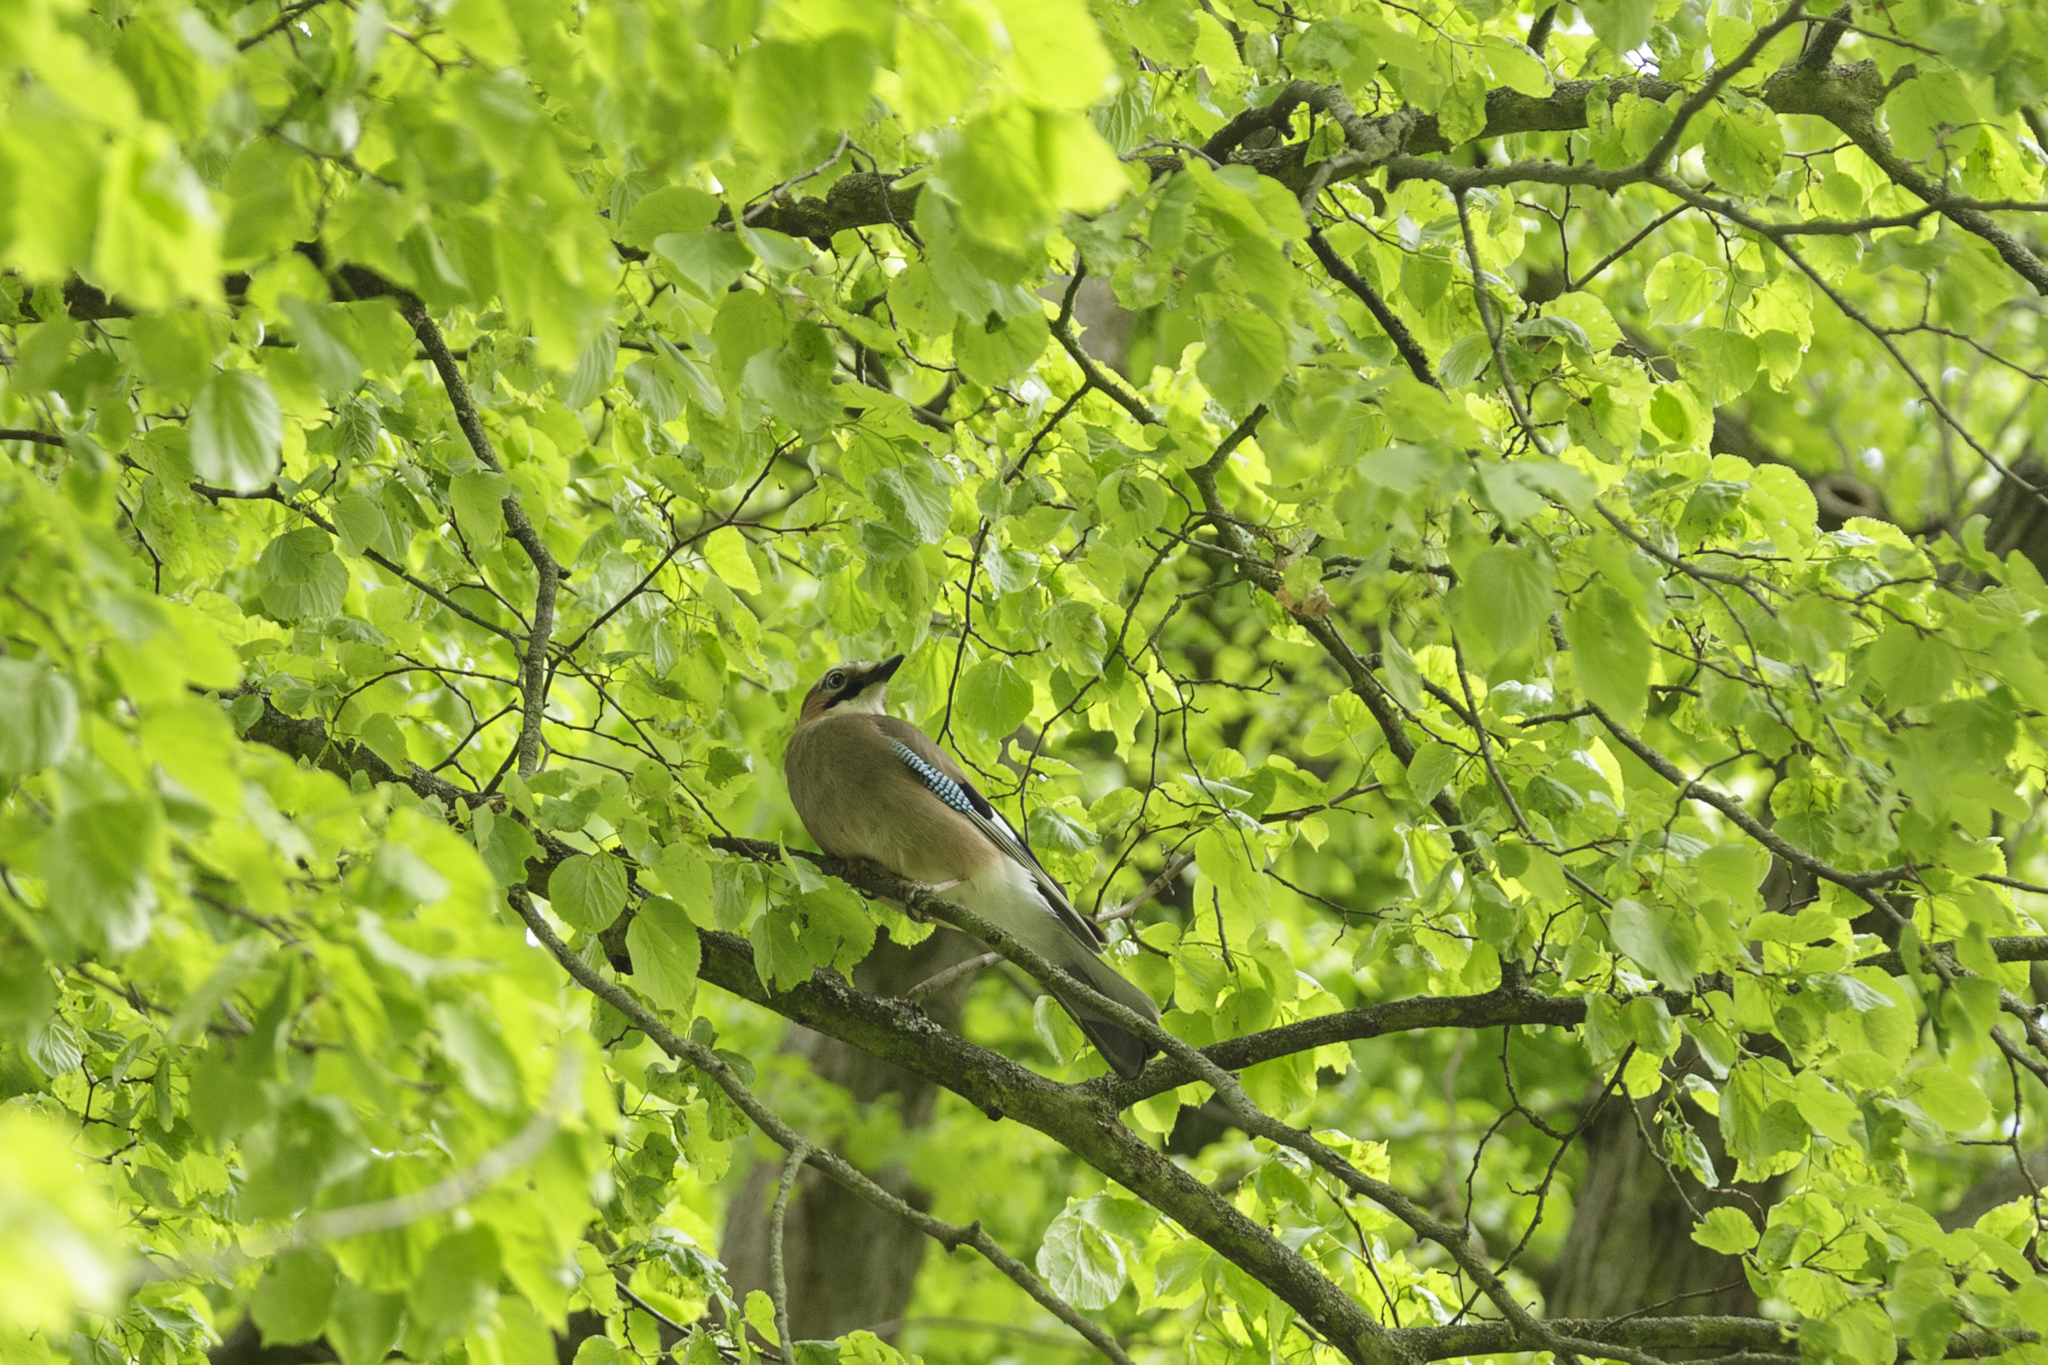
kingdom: Animalia
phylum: Chordata
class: Aves
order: Passeriformes
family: Corvidae
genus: Garrulus
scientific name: Garrulus glandarius
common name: Eurasian jay
